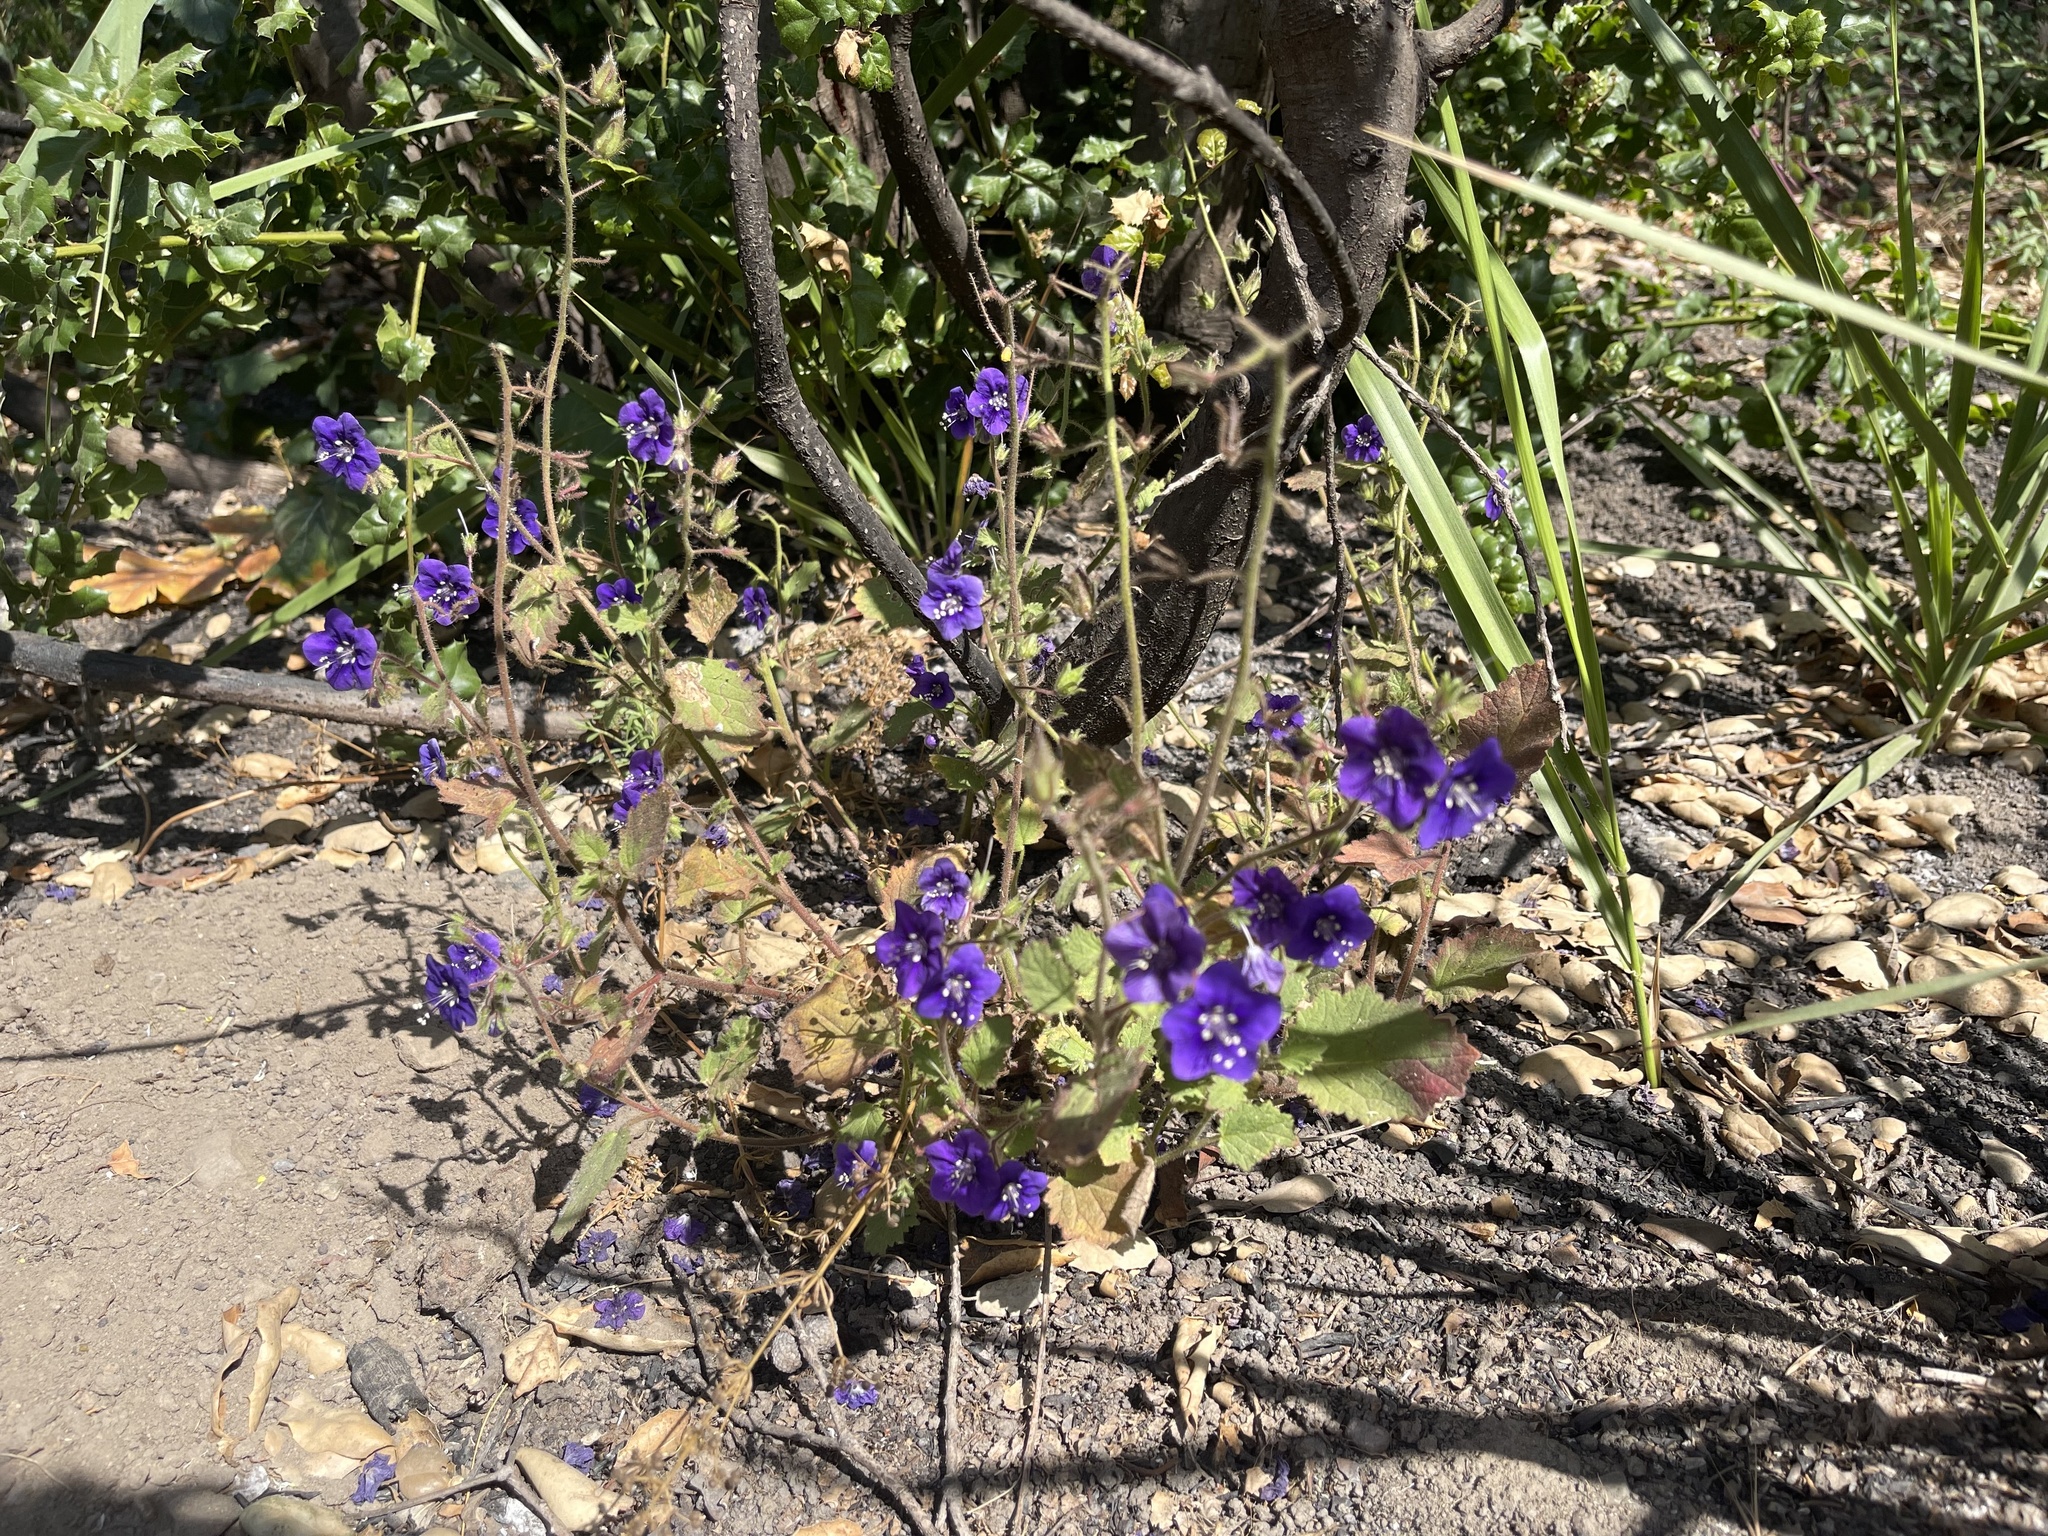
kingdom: Plantae
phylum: Tracheophyta
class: Magnoliopsida
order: Boraginales
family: Hydrophyllaceae
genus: Phacelia
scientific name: Phacelia parryi
